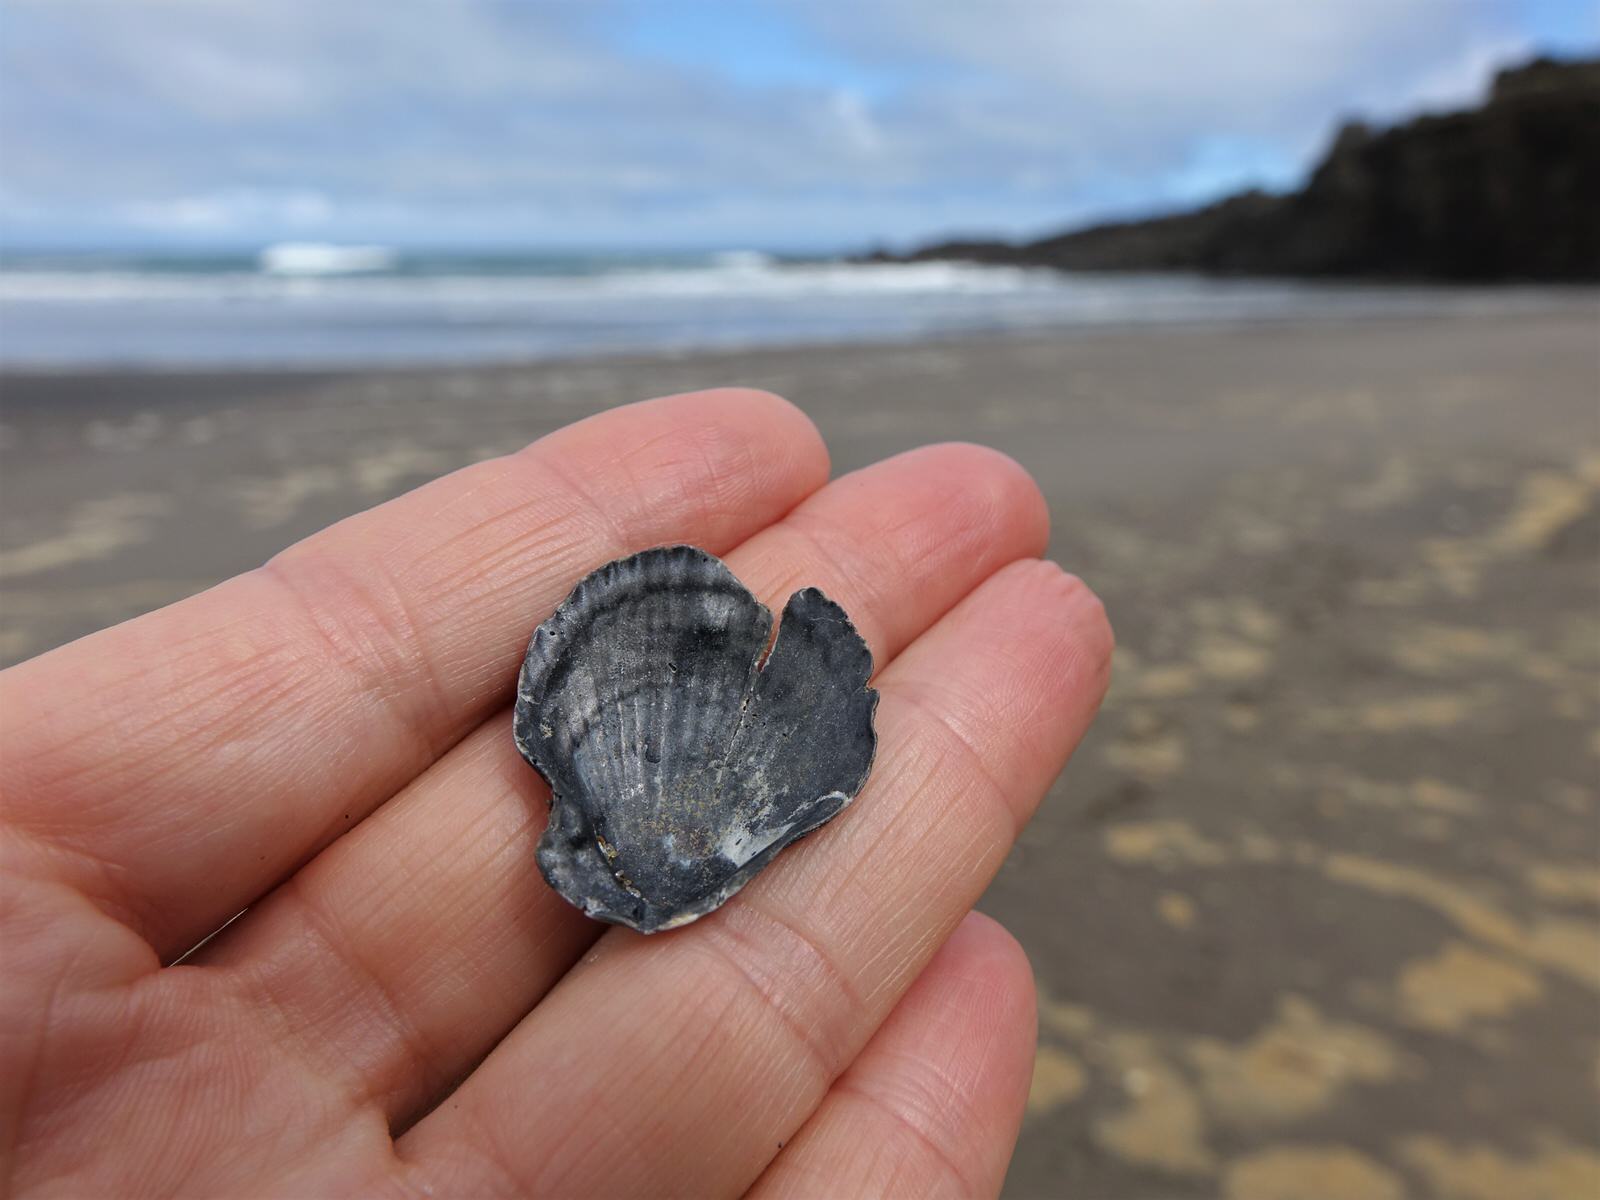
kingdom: Animalia
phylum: Mollusca
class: Bivalvia
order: Pectinida
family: Pectinidae
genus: Talochlamys
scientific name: Talochlamys zelandiae
